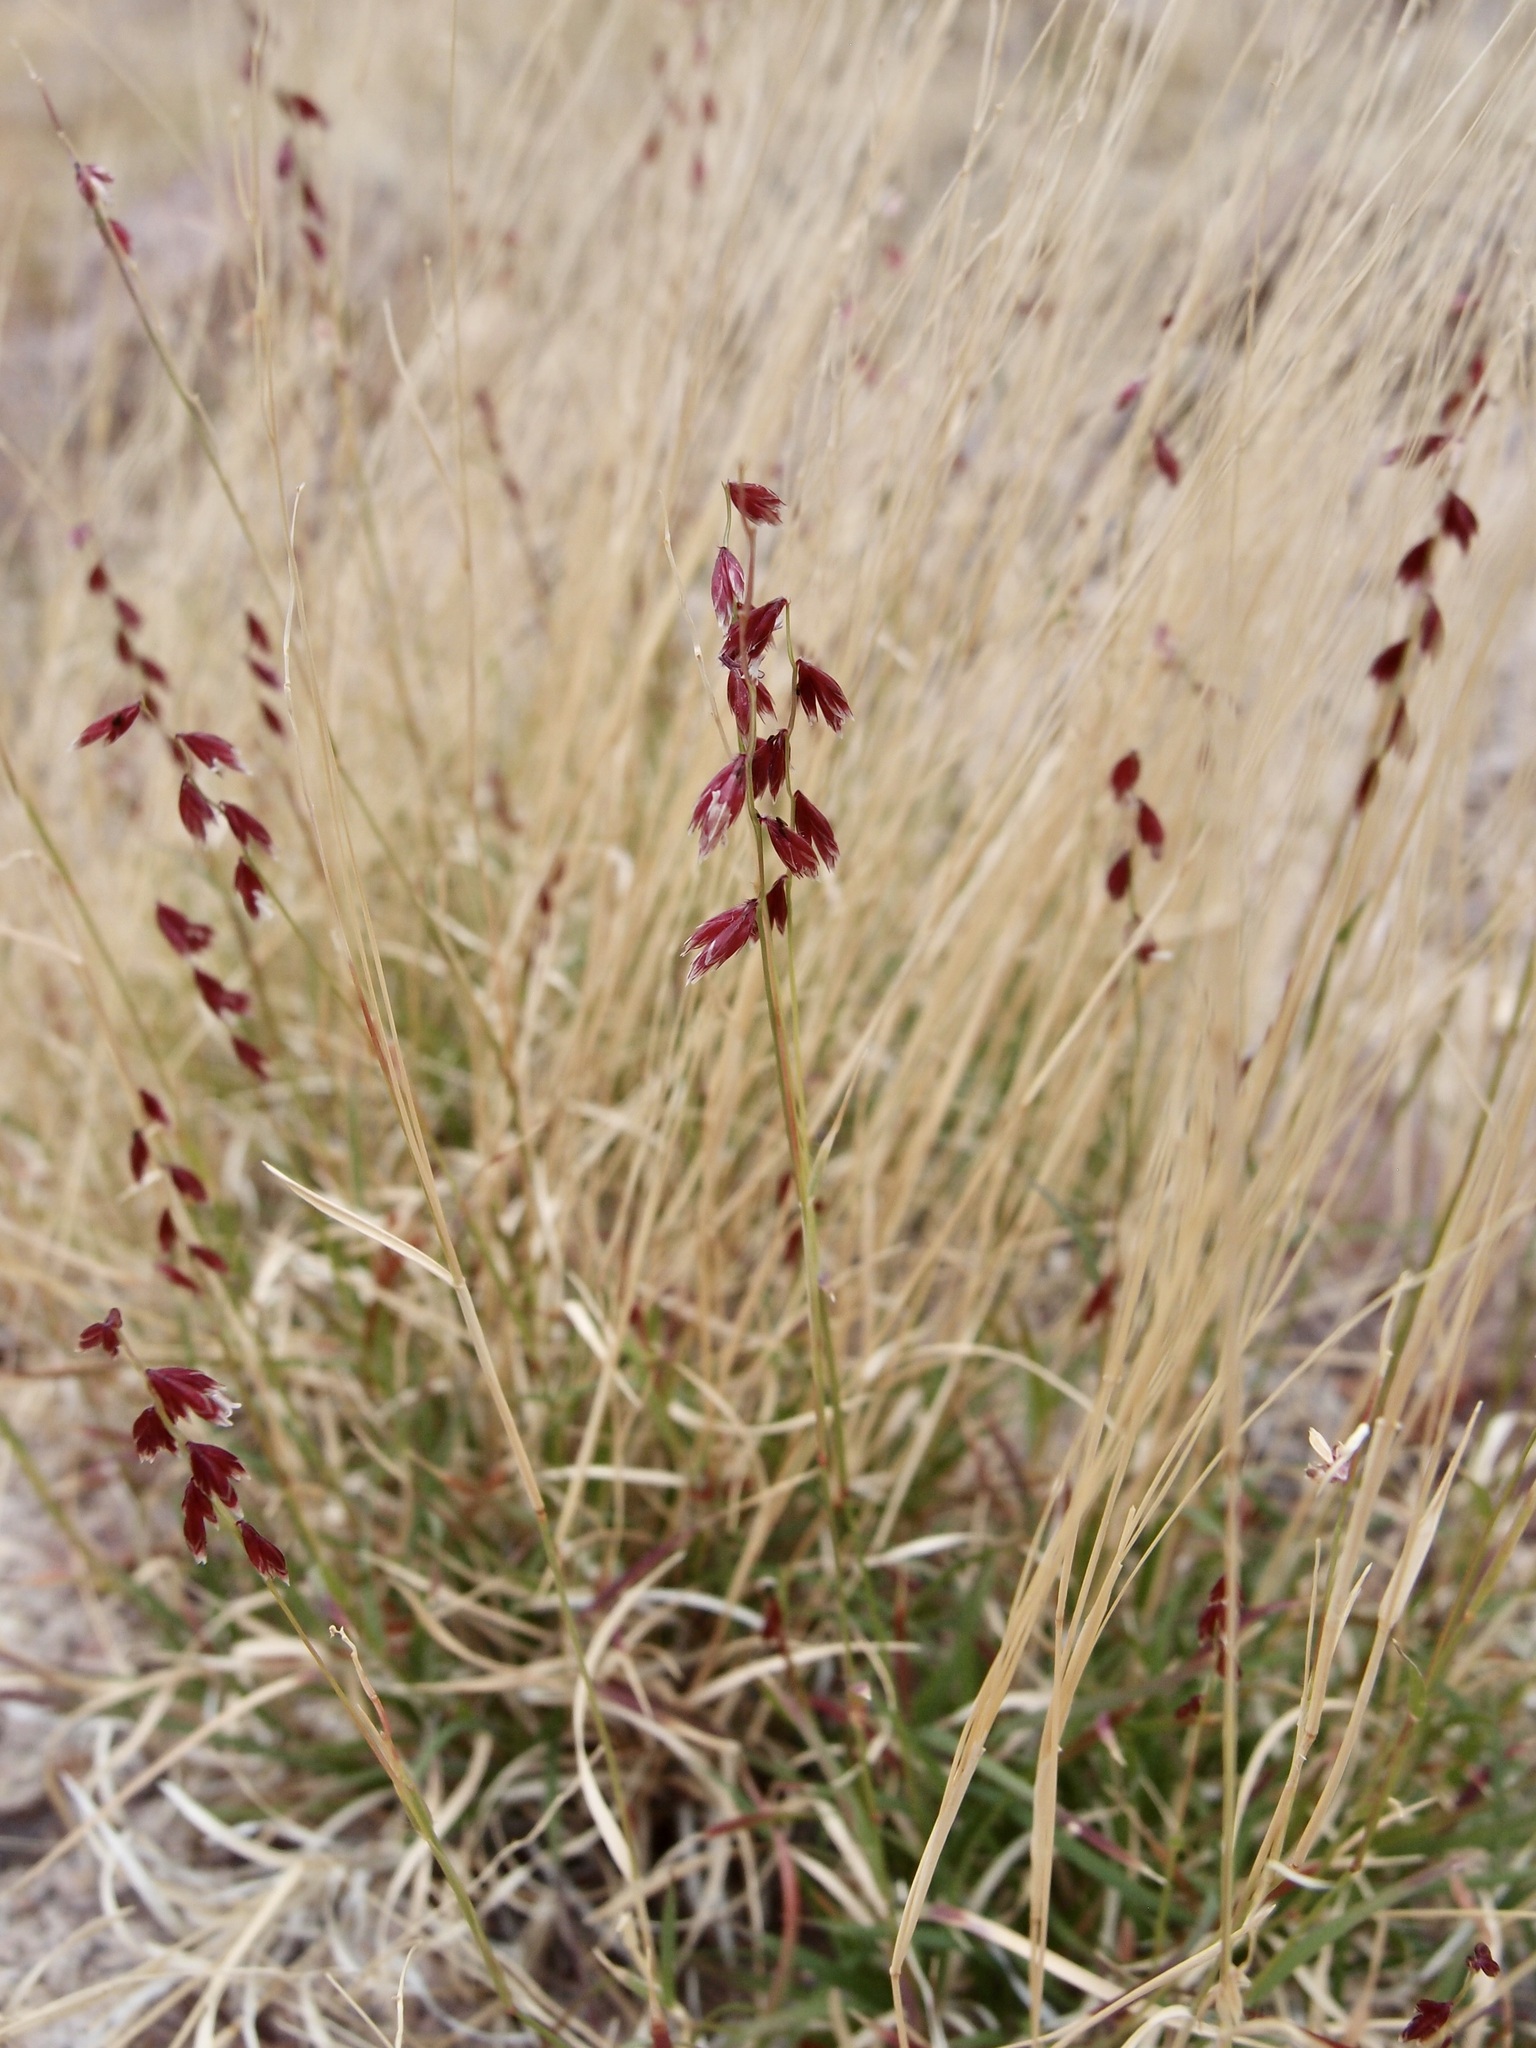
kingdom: Plantae
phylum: Tracheophyta
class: Liliopsida
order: Poales
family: Poaceae
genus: Bouteloua
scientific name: Bouteloua diversispicula
